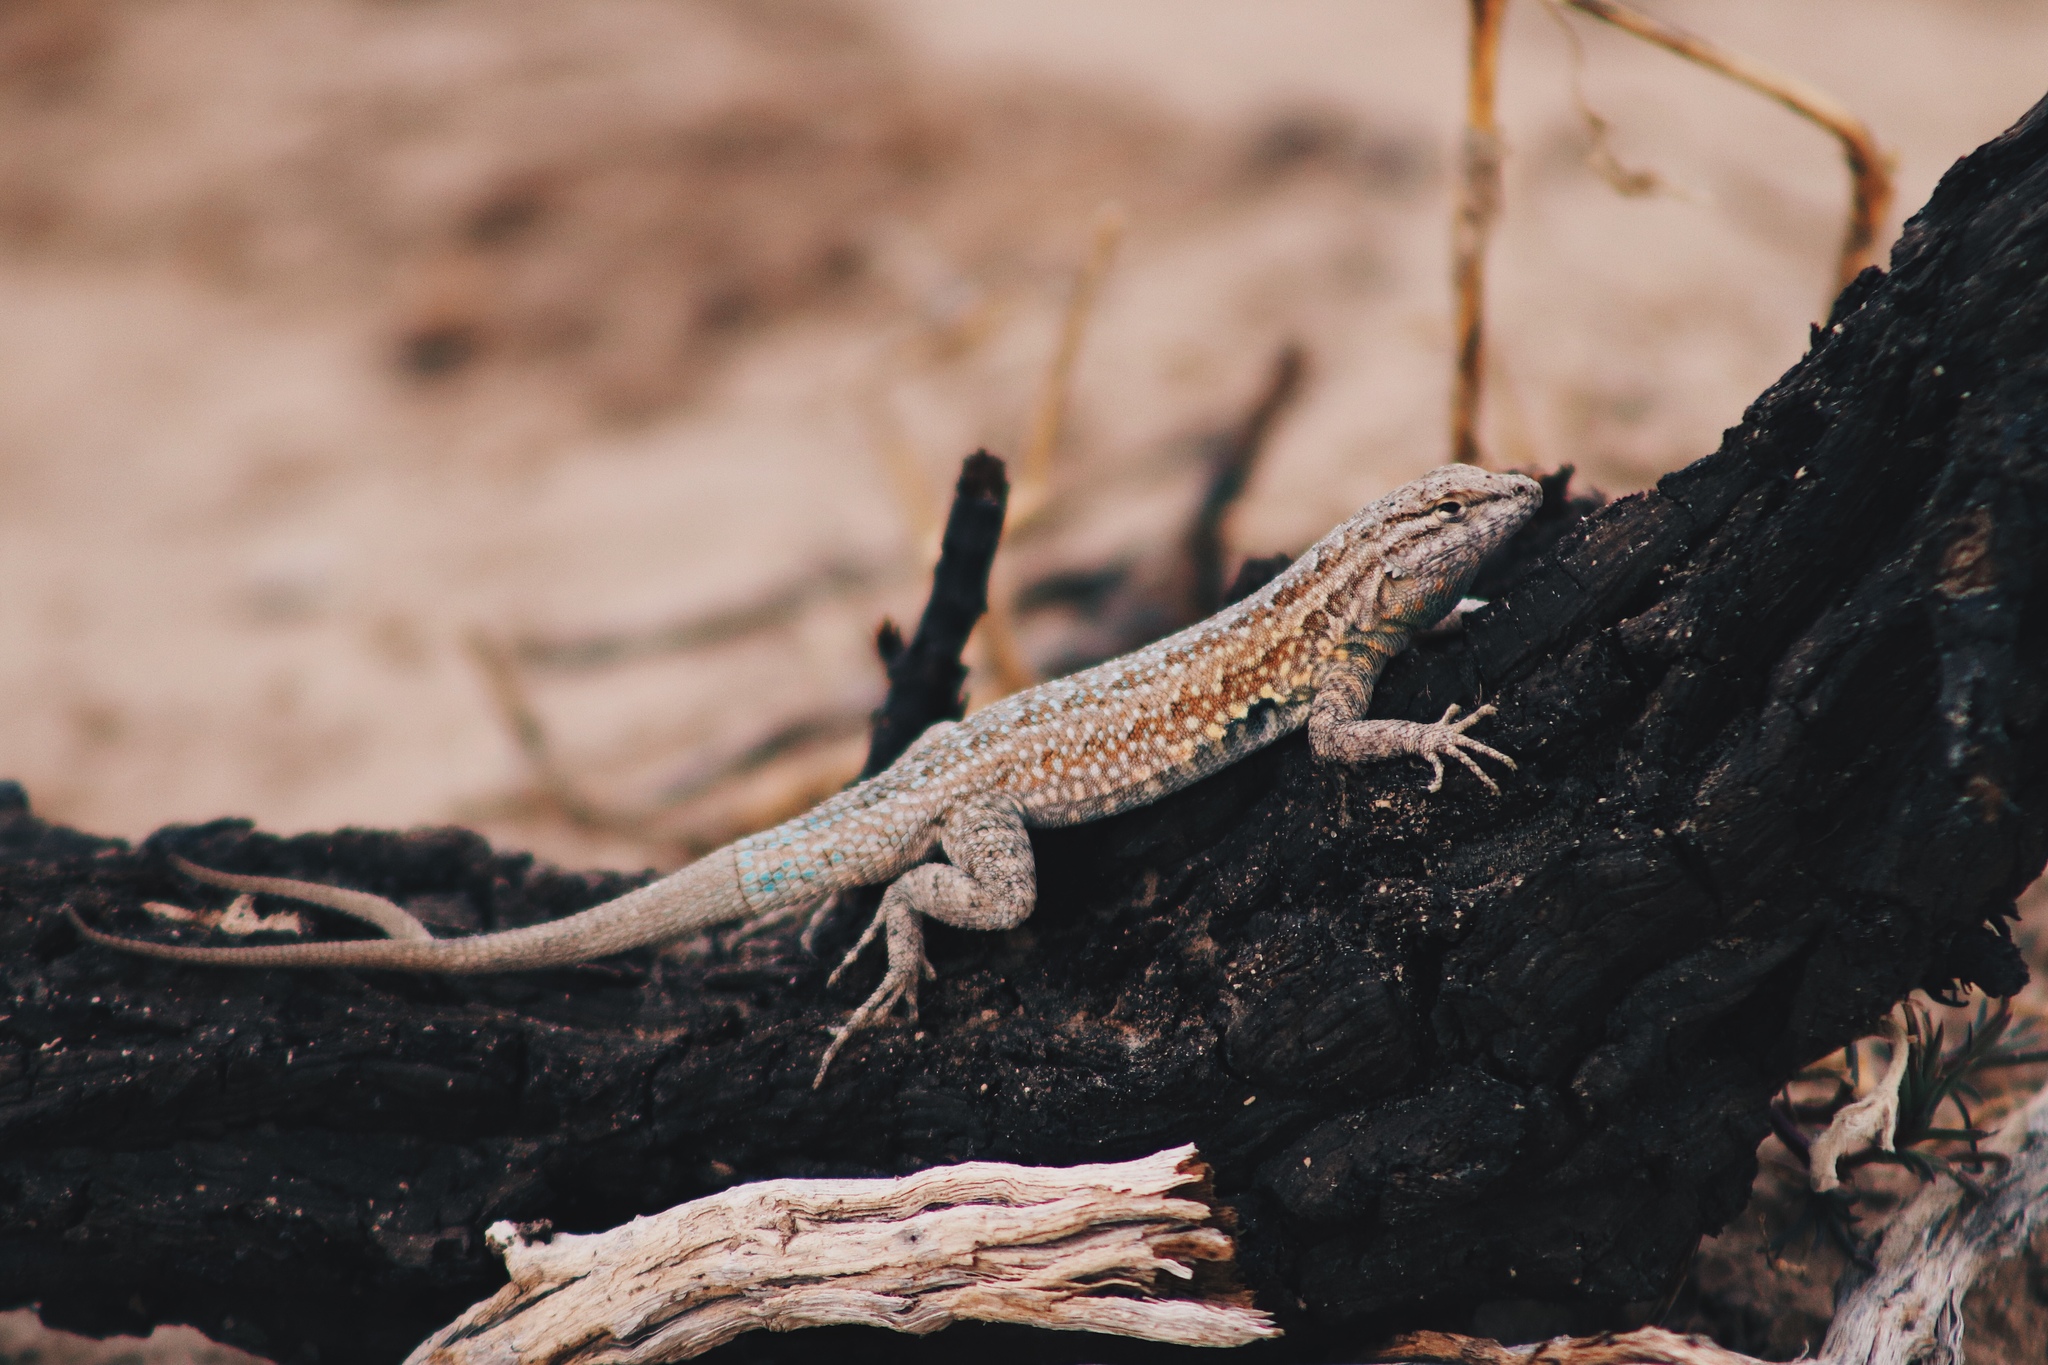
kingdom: Animalia
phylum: Chordata
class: Squamata
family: Phrynosomatidae
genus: Uta
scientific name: Uta stansburiana
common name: Side-blotched lizard
